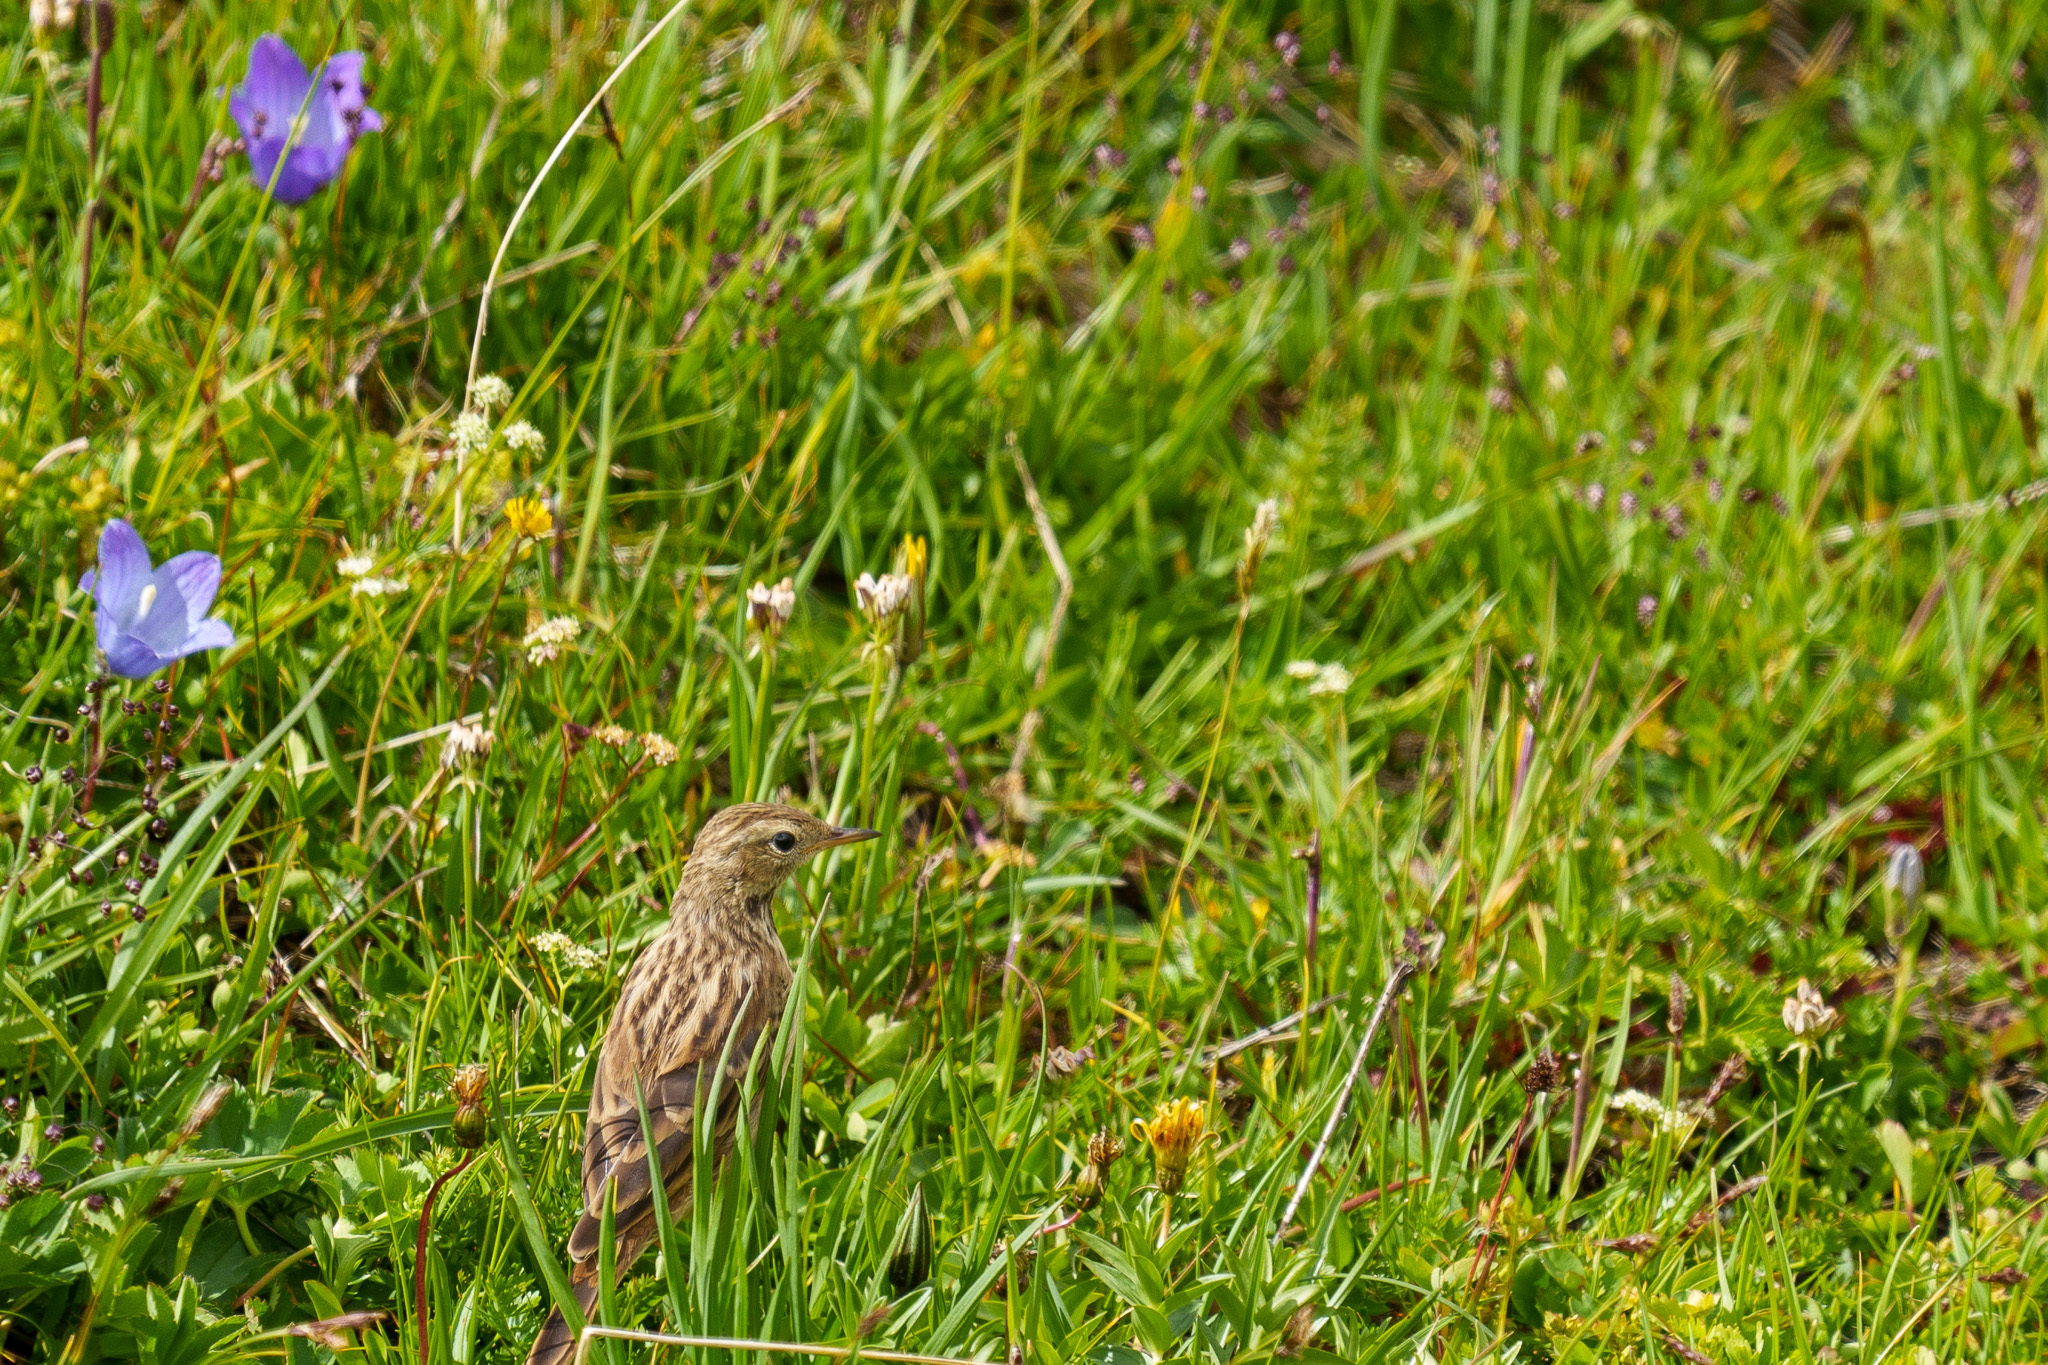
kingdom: Animalia
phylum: Chordata
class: Aves
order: Passeriformes
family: Motacillidae
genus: Anthus
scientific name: Anthus pratensis
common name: Meadow pipit
